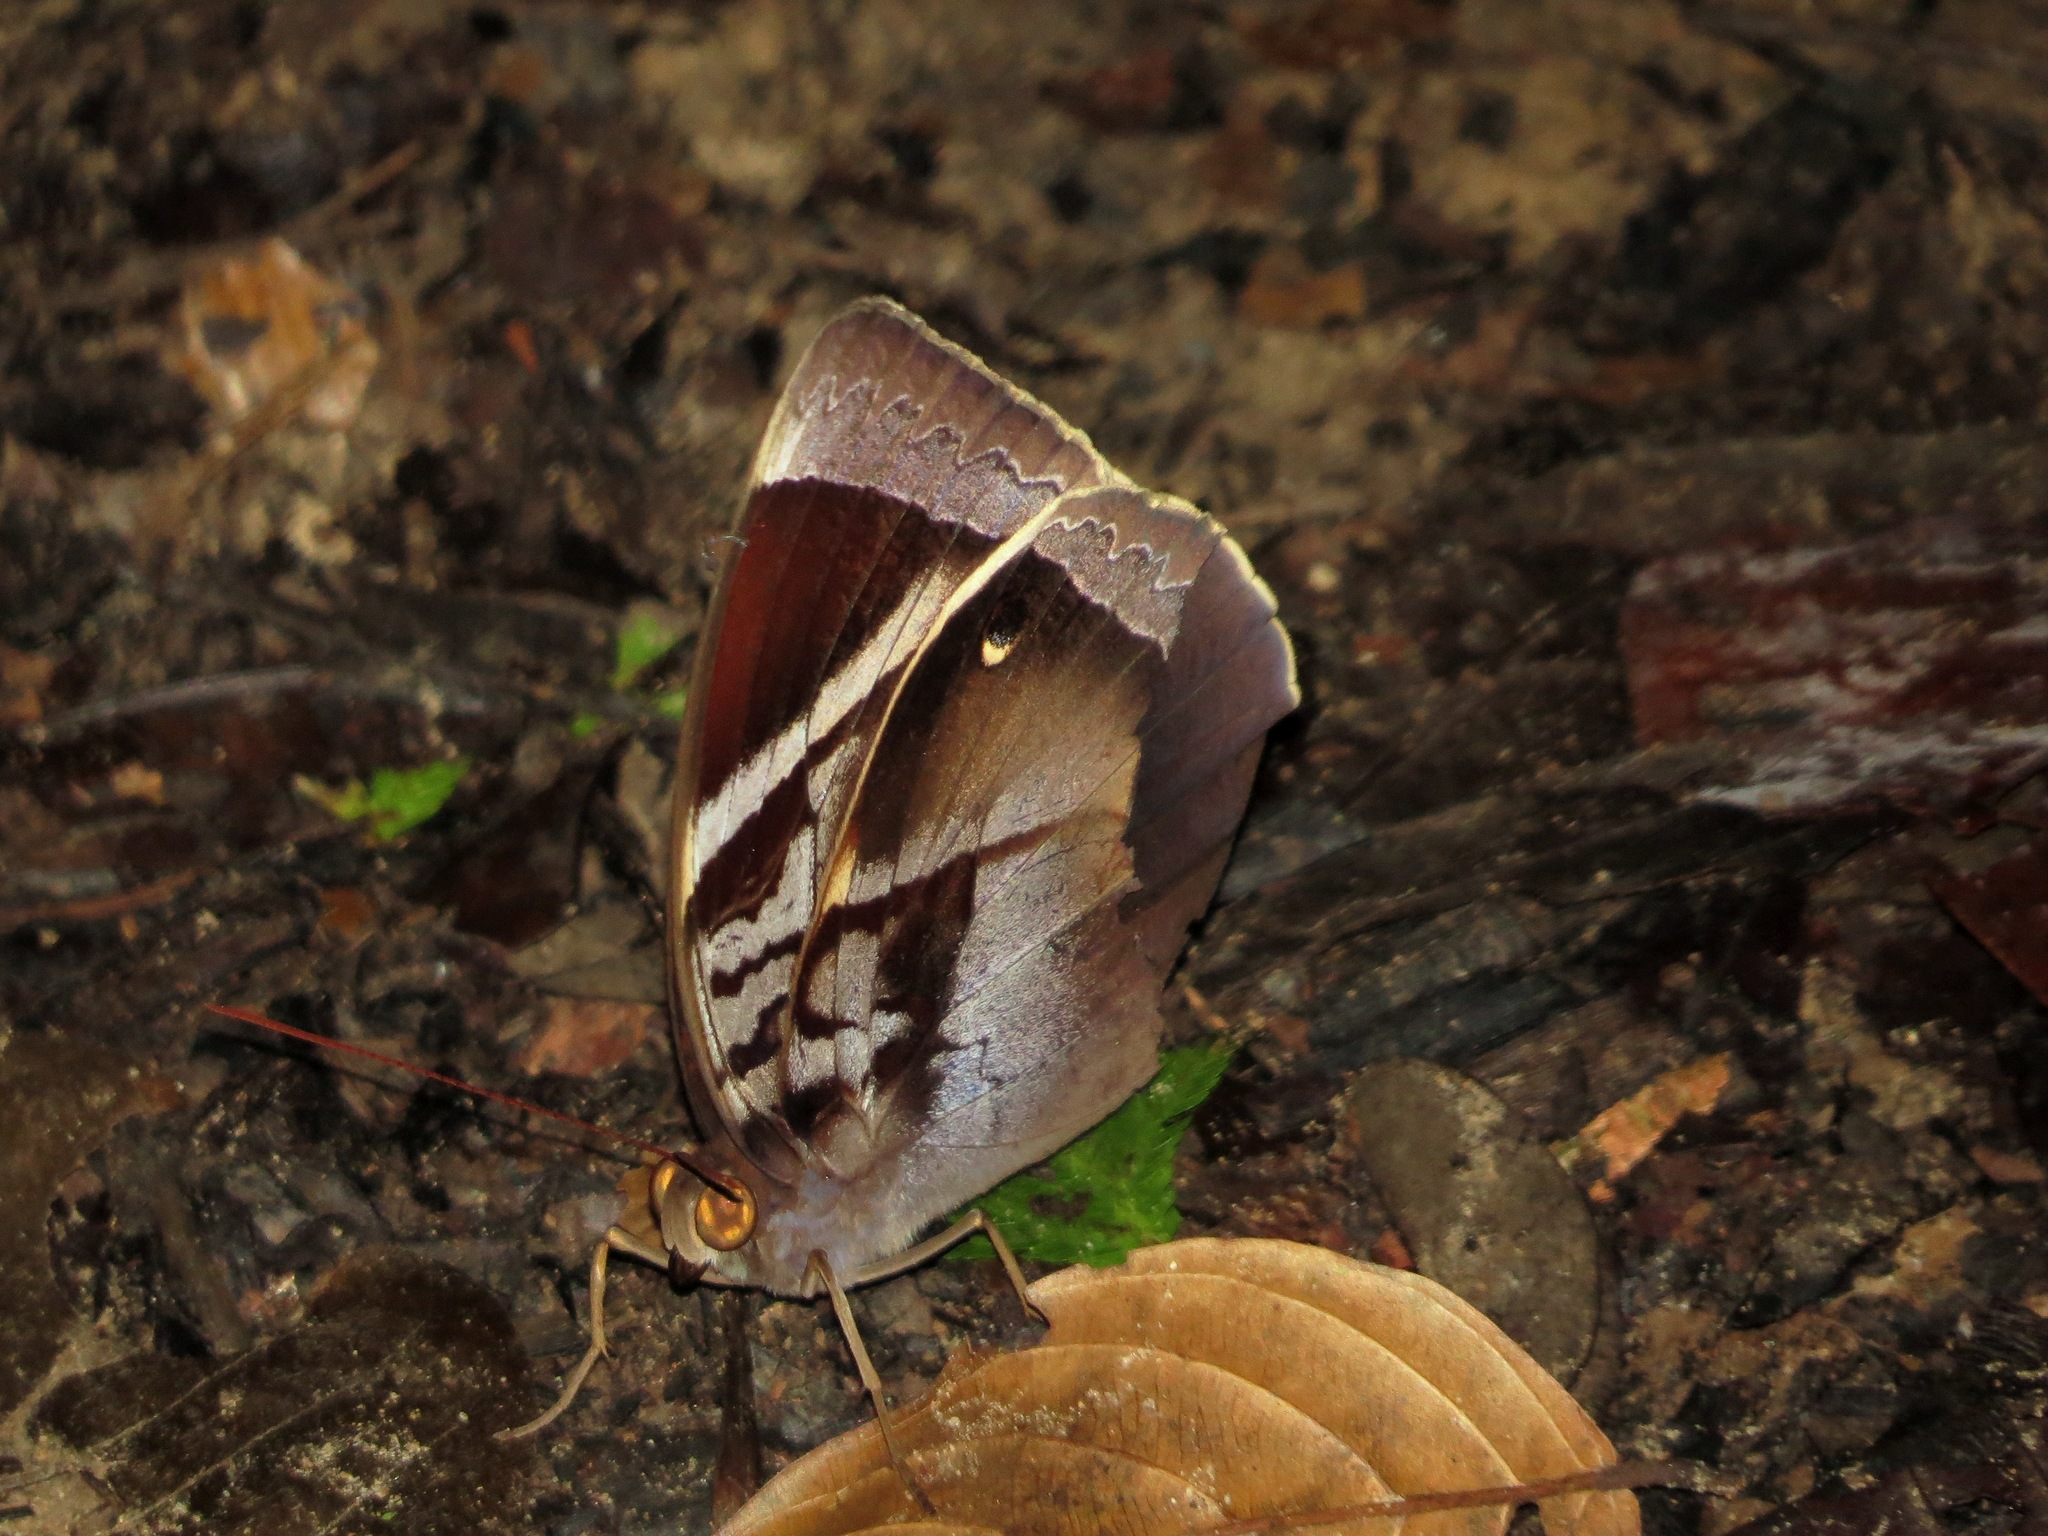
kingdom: Animalia
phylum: Arthropoda
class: Insecta
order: Lepidoptera
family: Nymphalidae
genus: Thaumantis
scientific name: Thaumantis odana
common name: Malayan jungle glory
